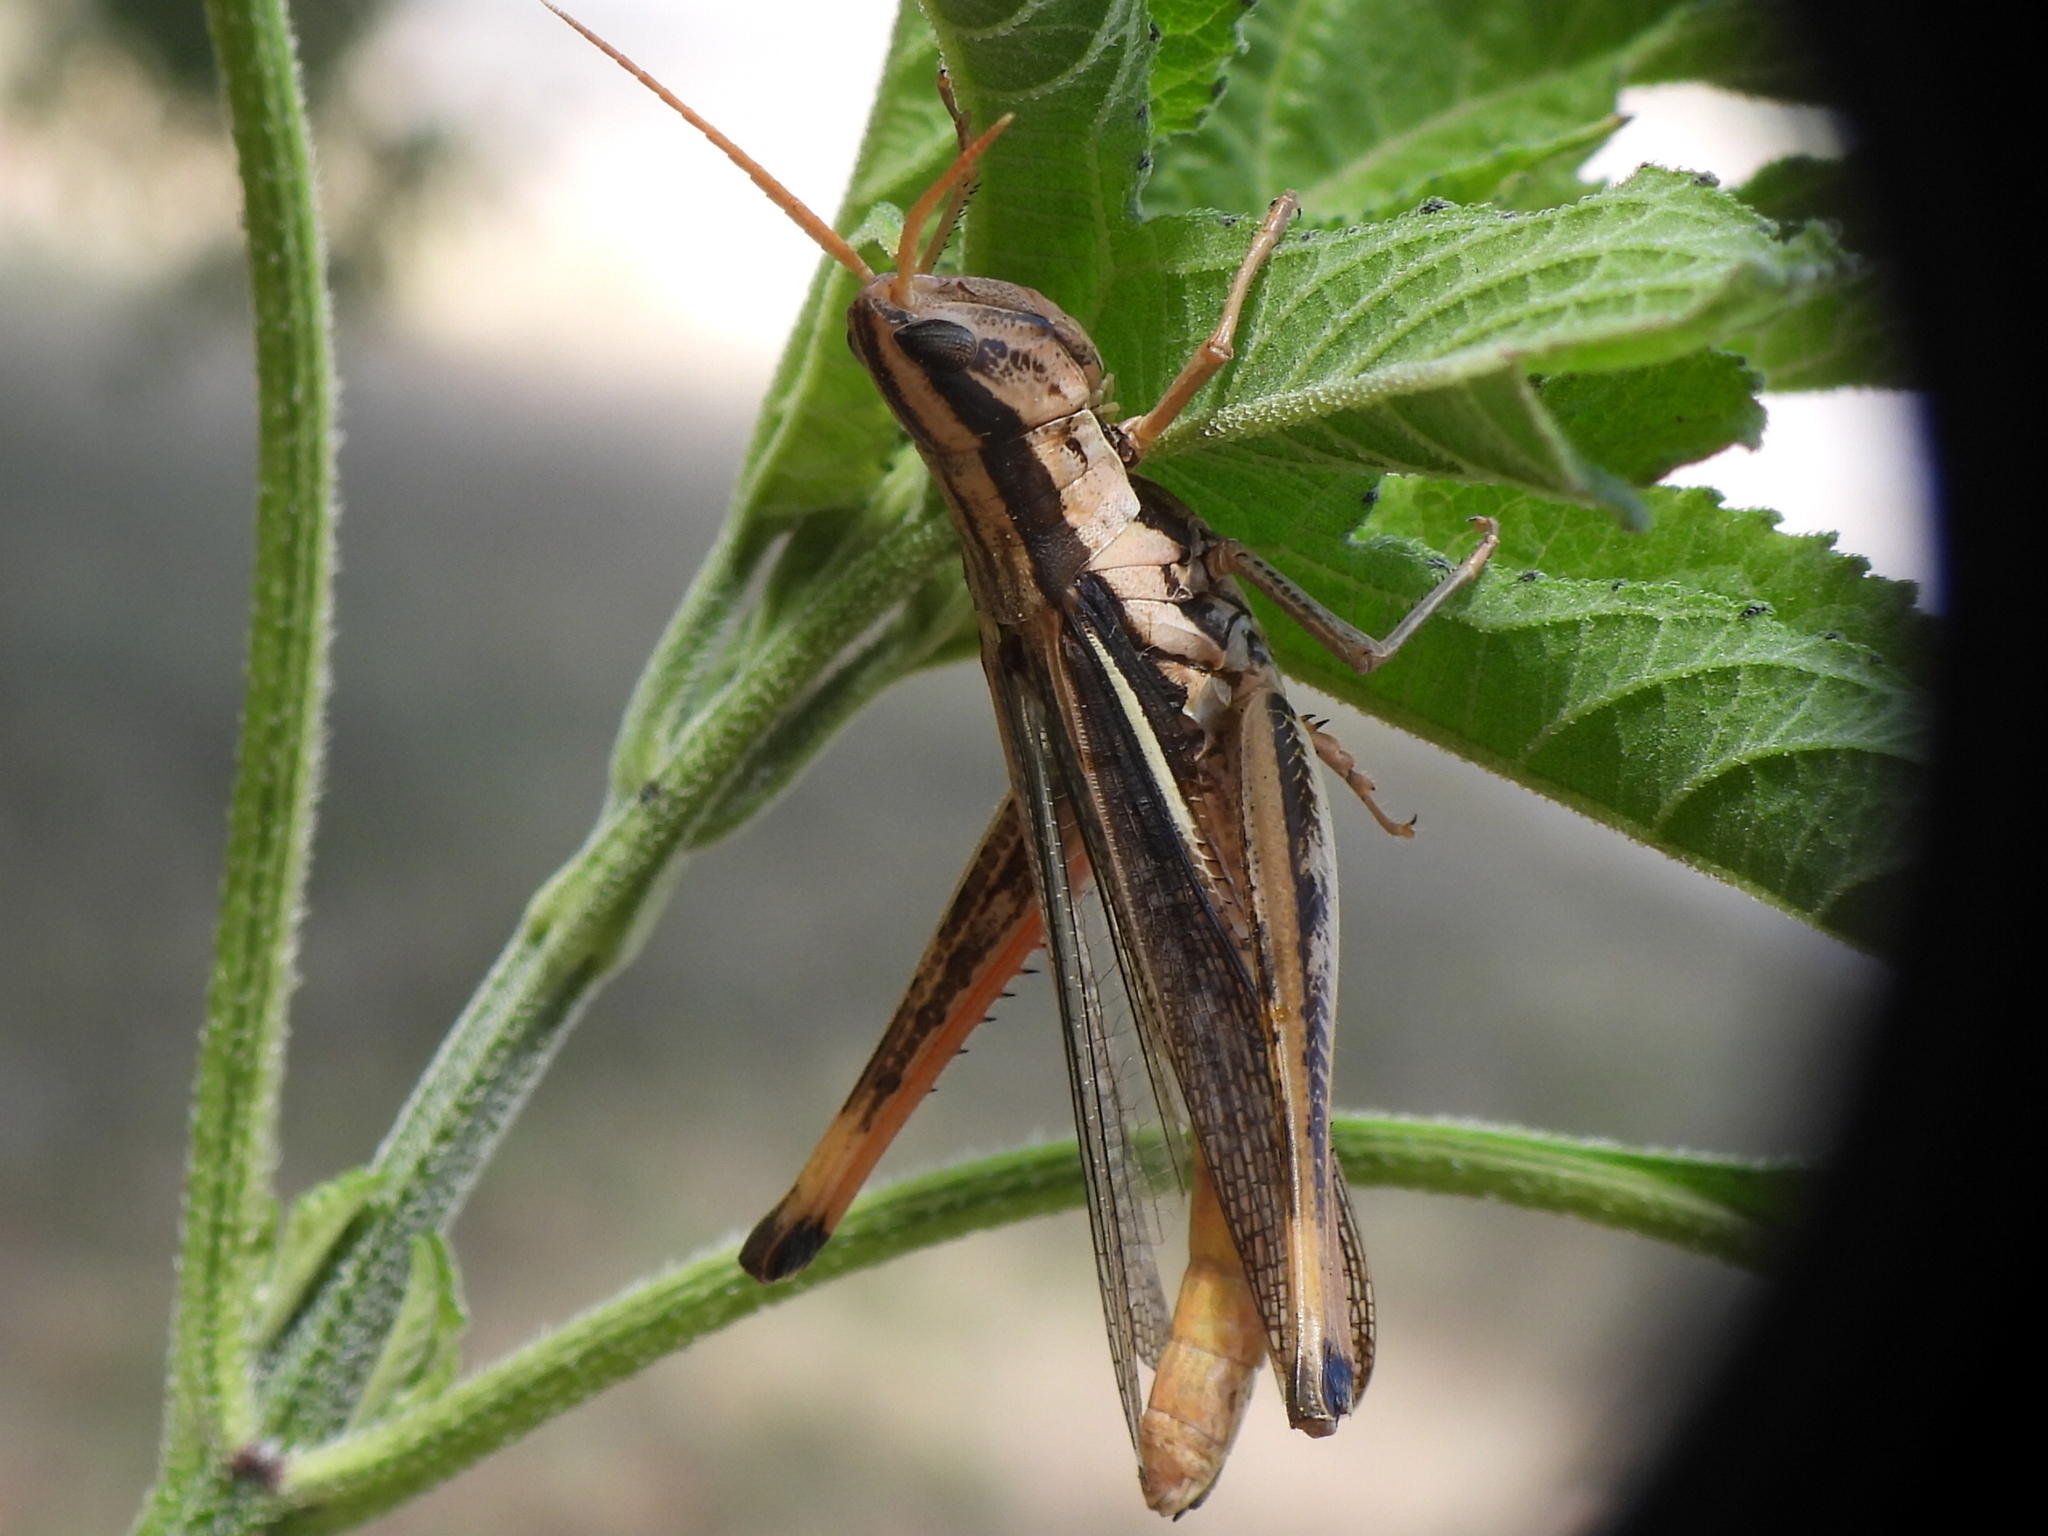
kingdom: Animalia
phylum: Arthropoda
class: Insecta
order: Orthoptera
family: Acrididae
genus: Mermiria
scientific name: Mermiria bivittata
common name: Two-striped mermiria grasshopper
